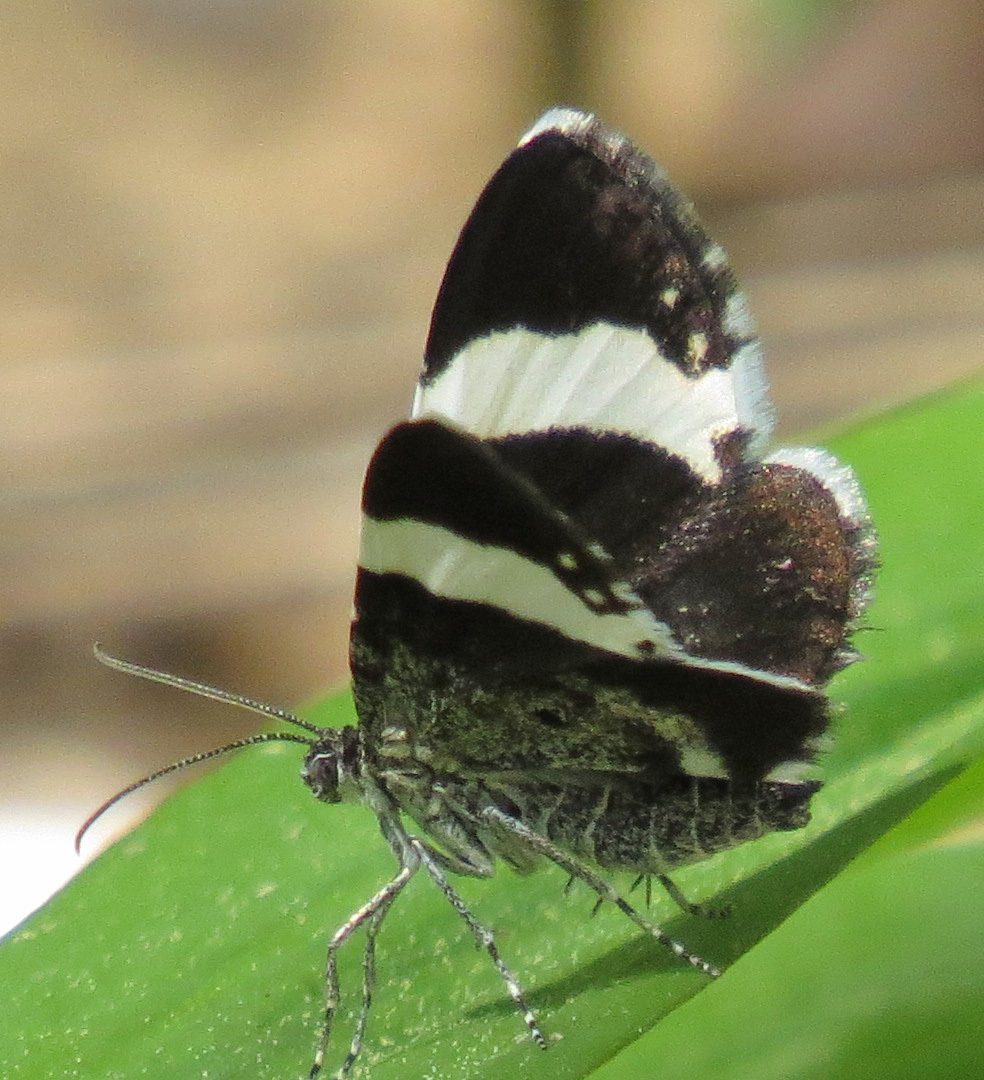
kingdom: Animalia
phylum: Arthropoda
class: Insecta
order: Lepidoptera
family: Geometridae
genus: Trichodezia
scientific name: Trichodezia albovittata
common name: White striped black
